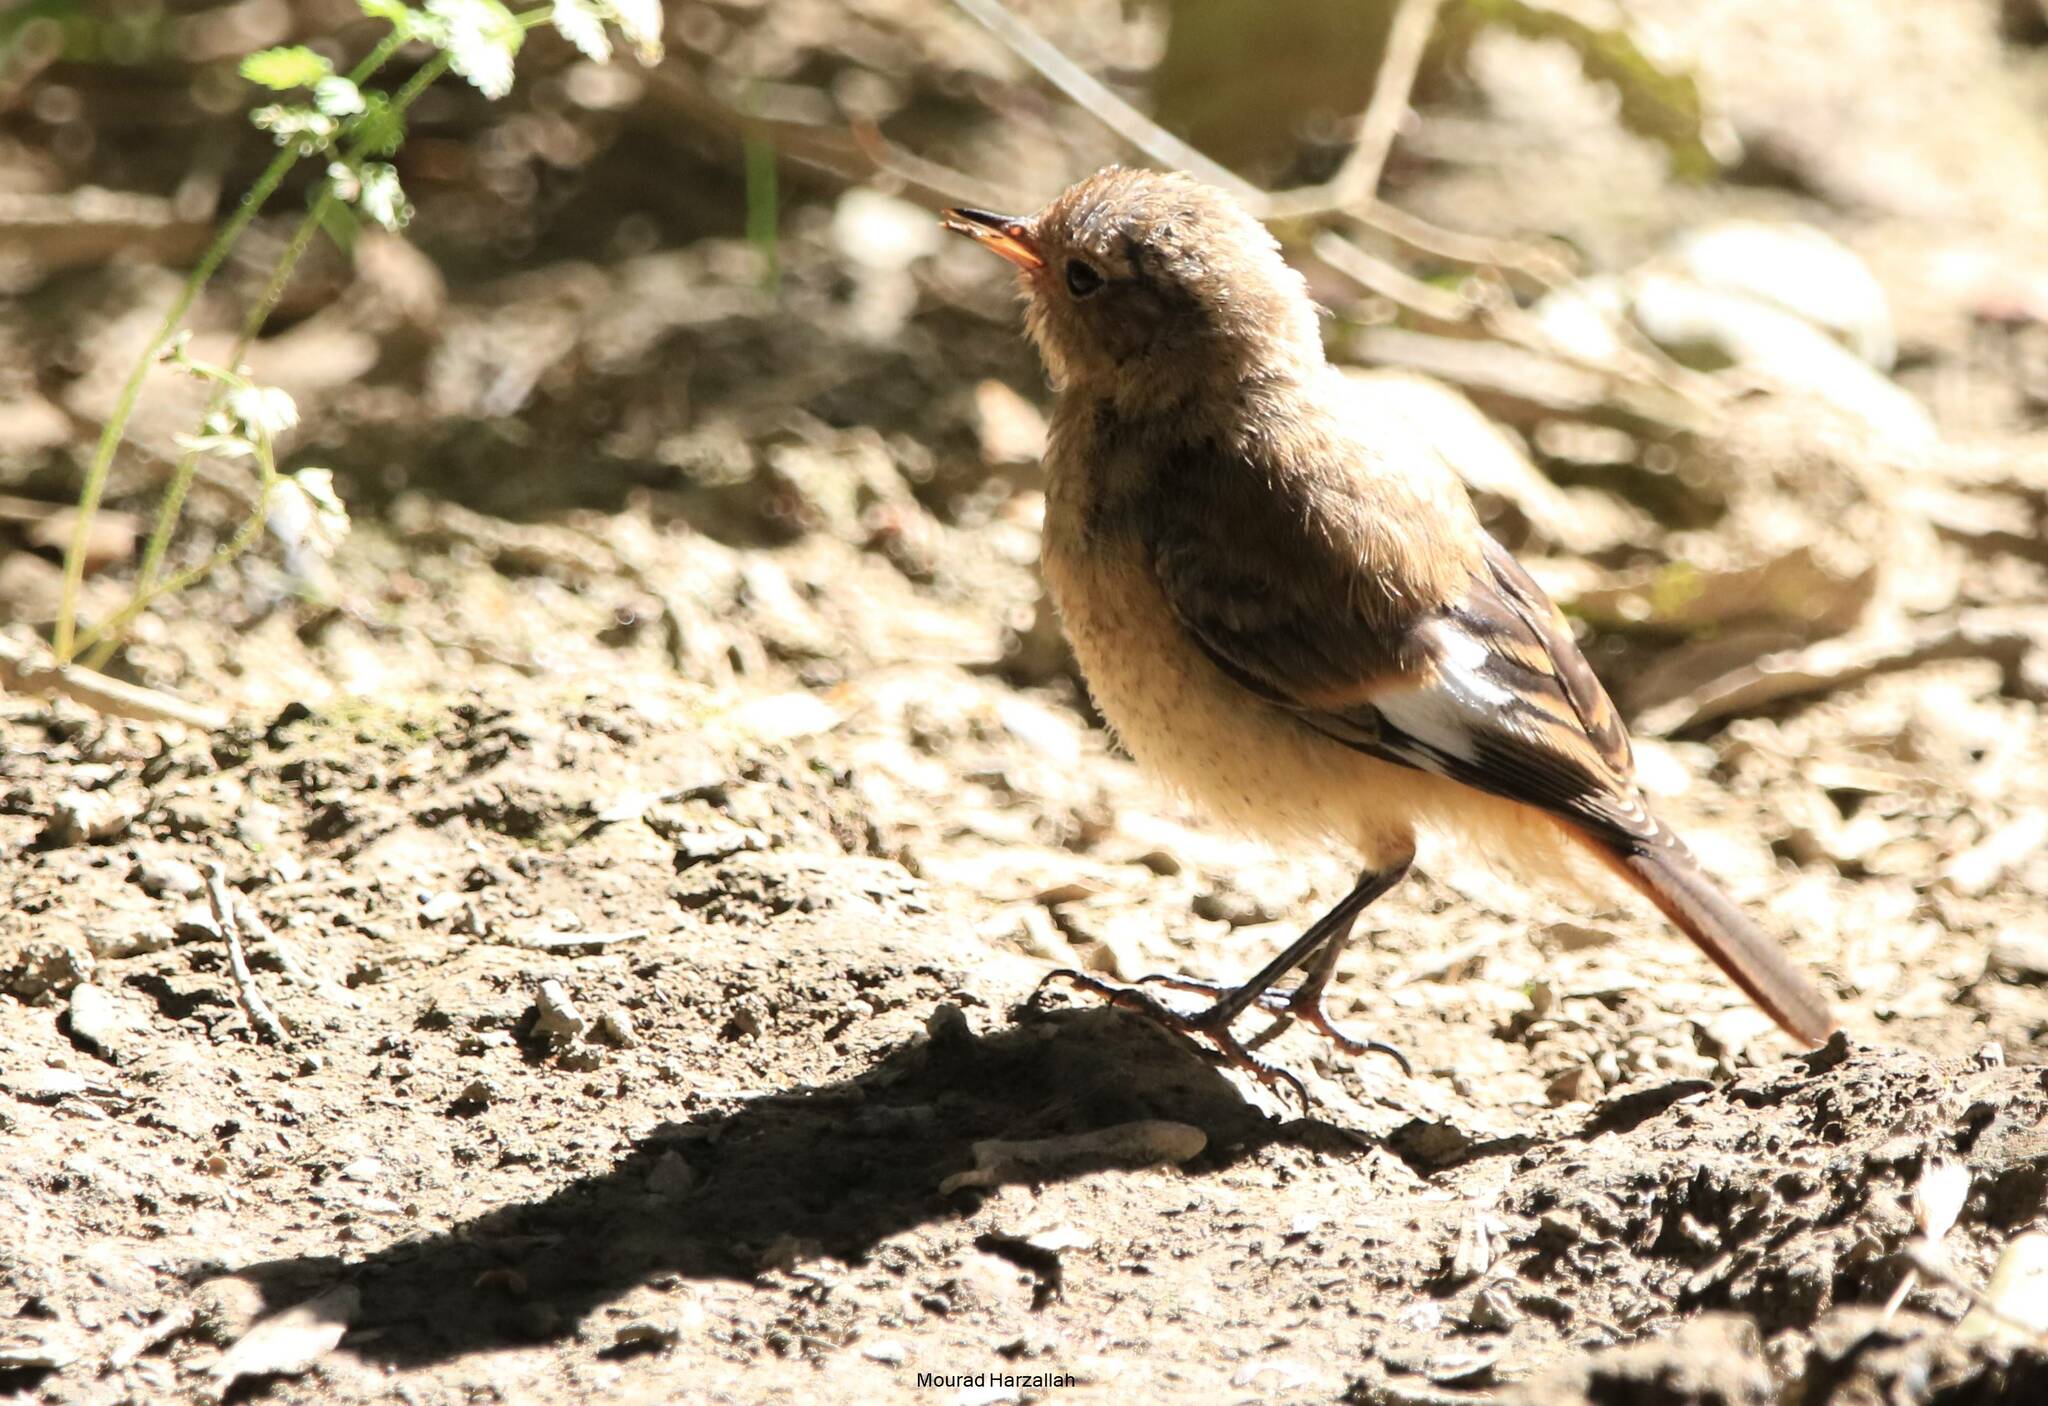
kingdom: Animalia
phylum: Chordata
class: Aves
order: Passeriformes
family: Muscicapidae
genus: Phoenicurus
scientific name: Phoenicurus moussieri
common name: Moussier's redstart
